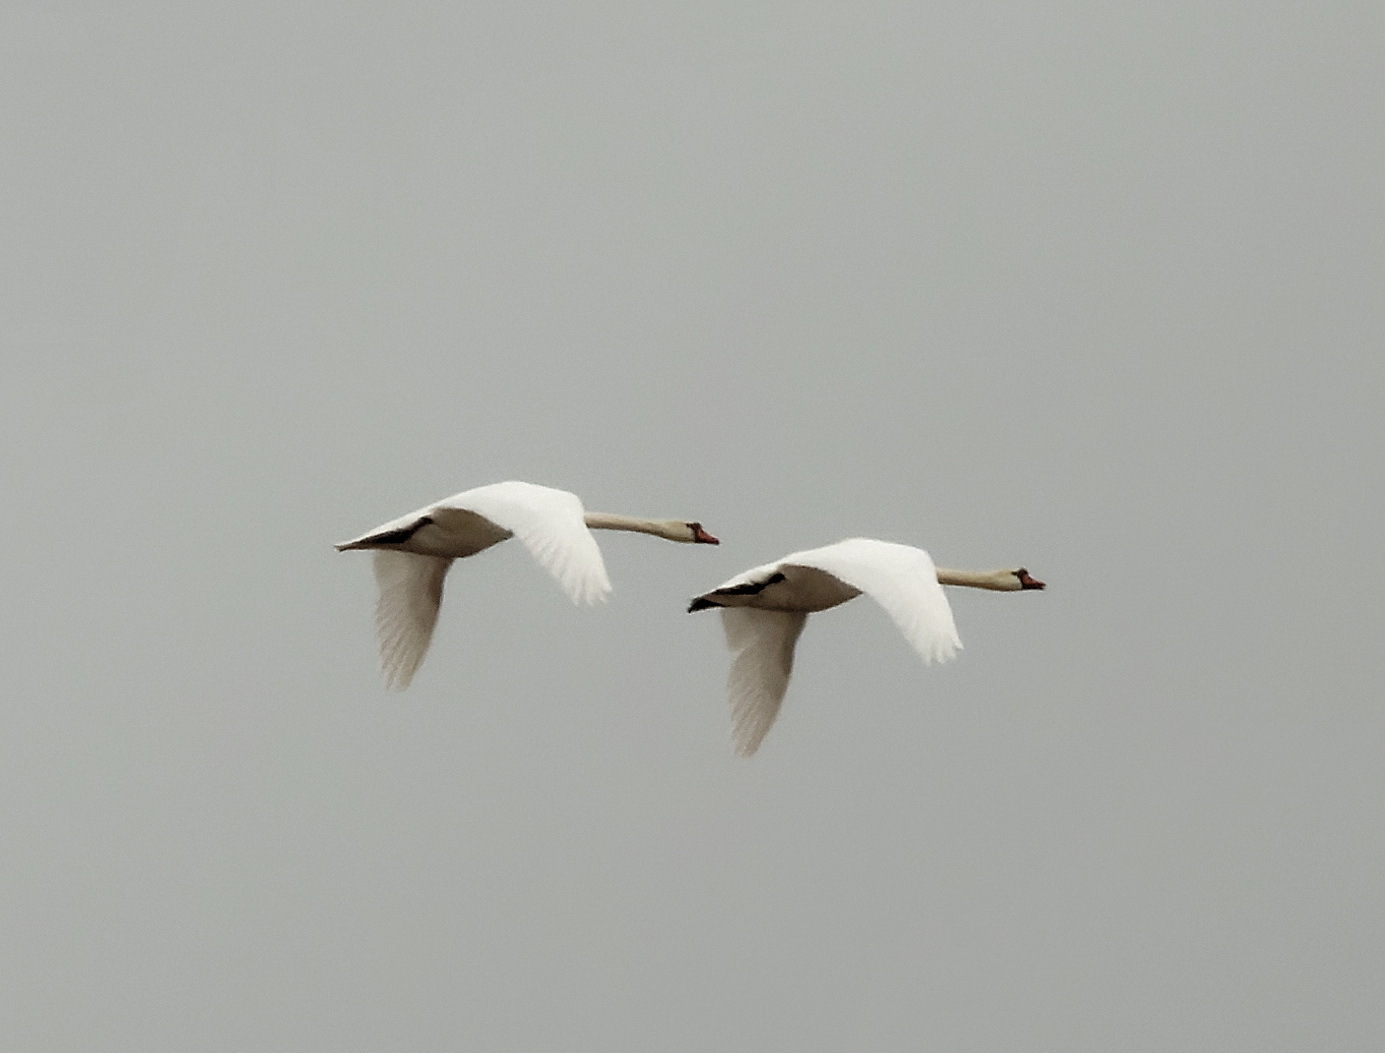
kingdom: Animalia
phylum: Chordata
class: Aves
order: Anseriformes
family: Anatidae
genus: Cygnus
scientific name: Cygnus olor
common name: Mute swan
